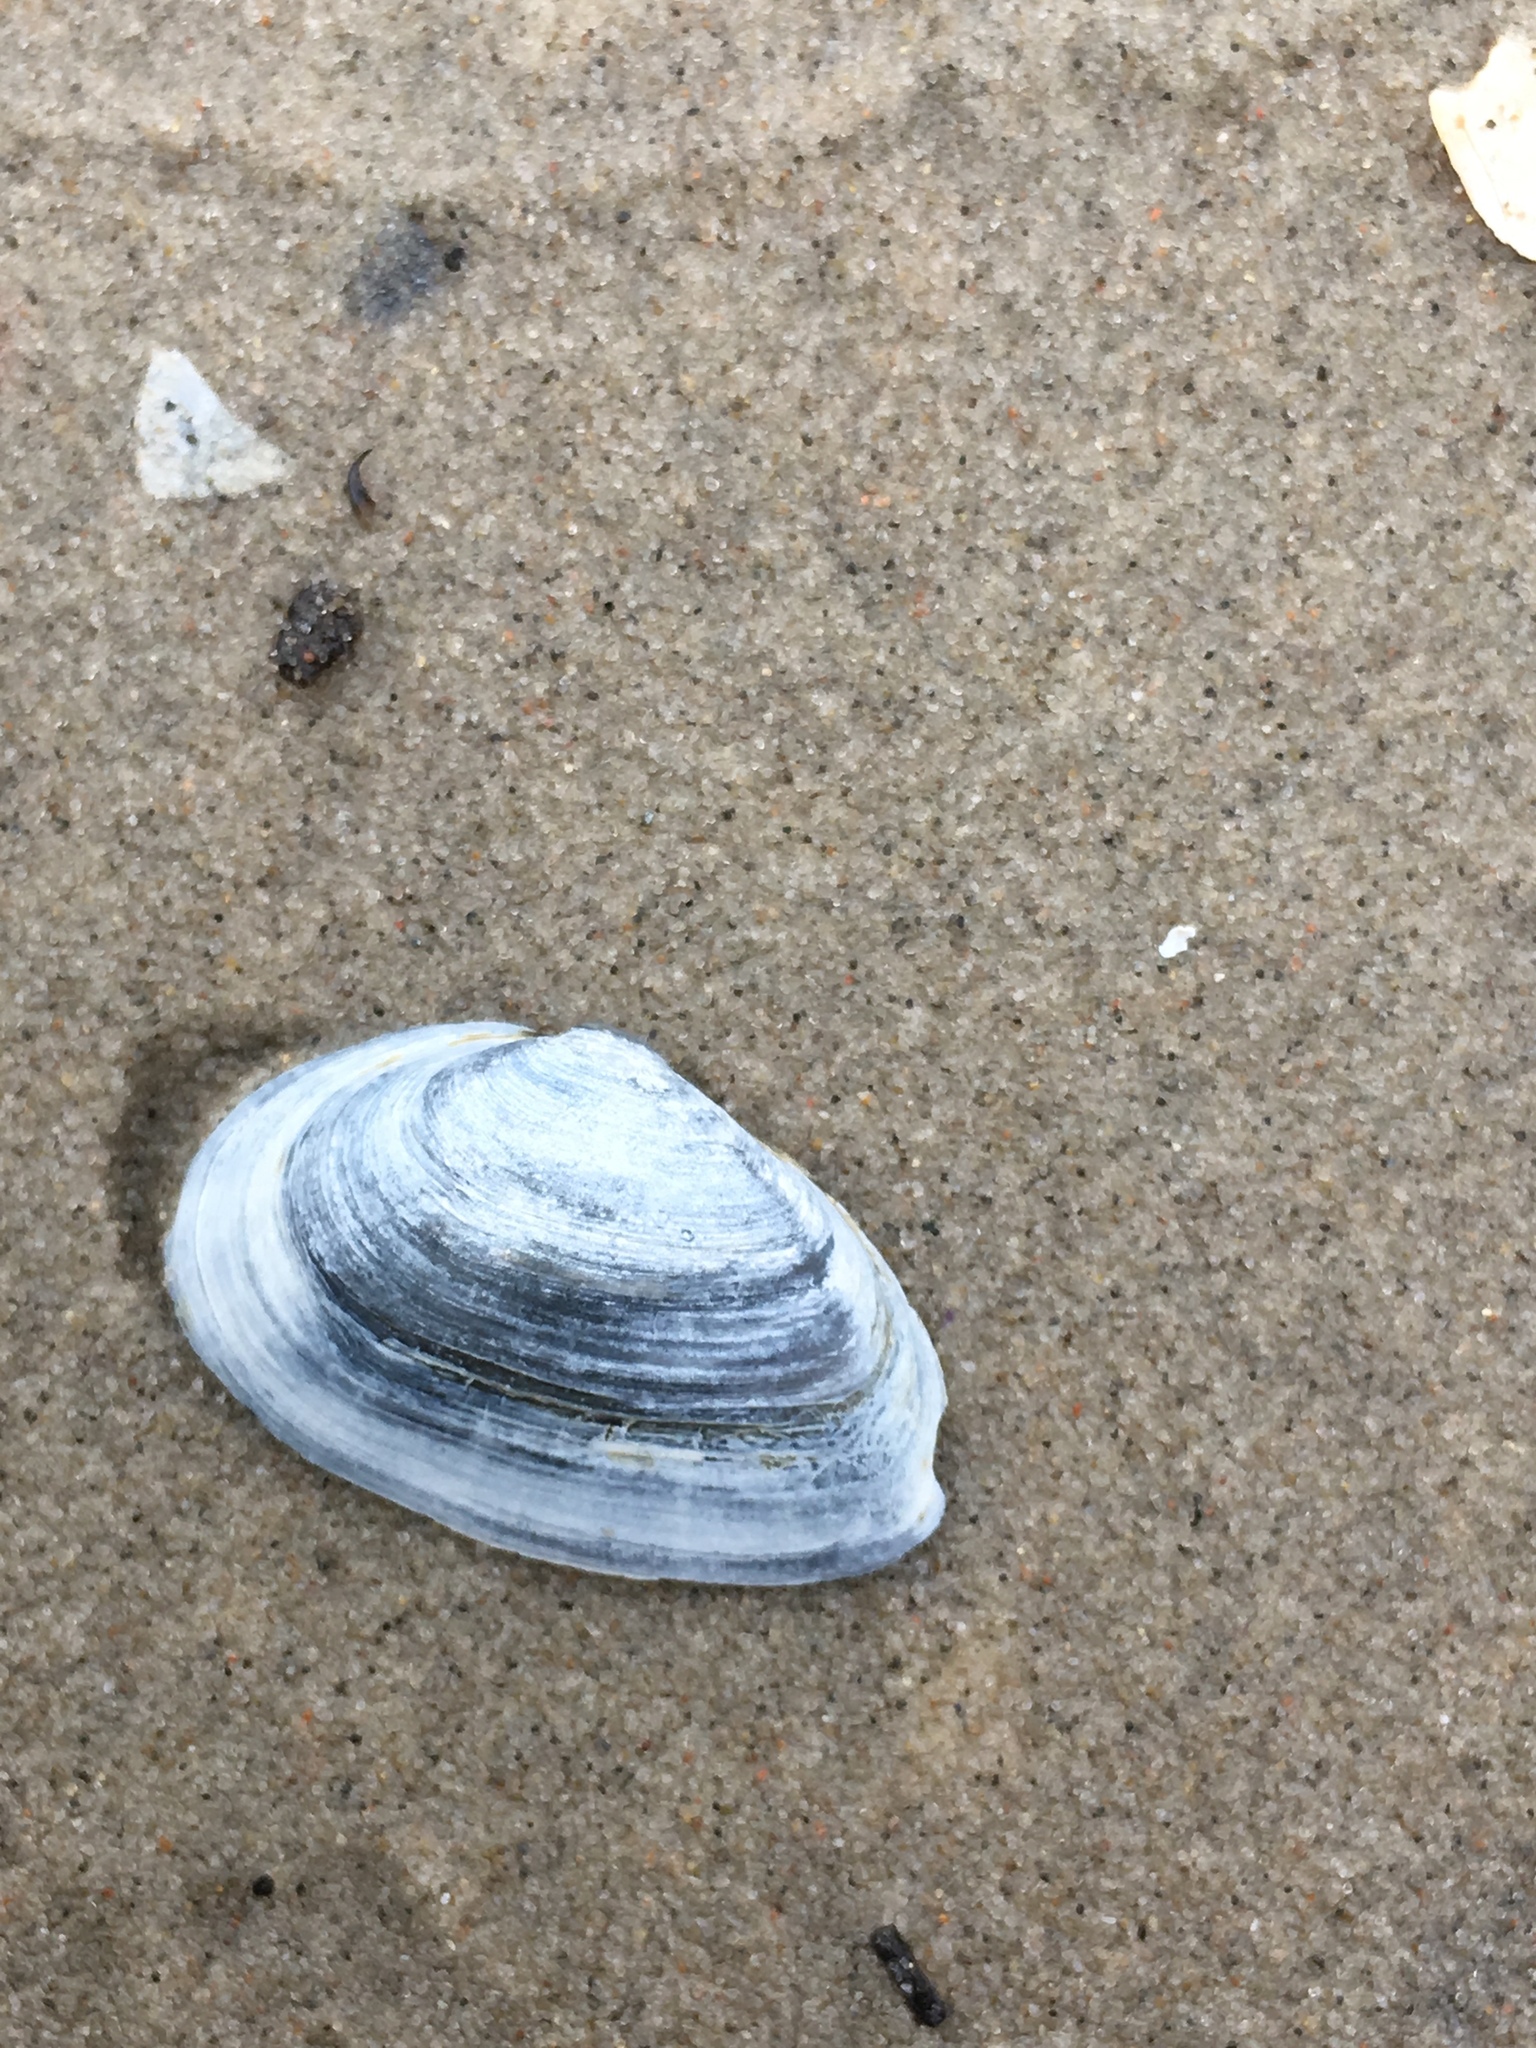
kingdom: Animalia
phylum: Mollusca
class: Bivalvia
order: Myida
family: Myidae
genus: Mya
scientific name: Mya arenaria
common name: Soft-shelled clam
